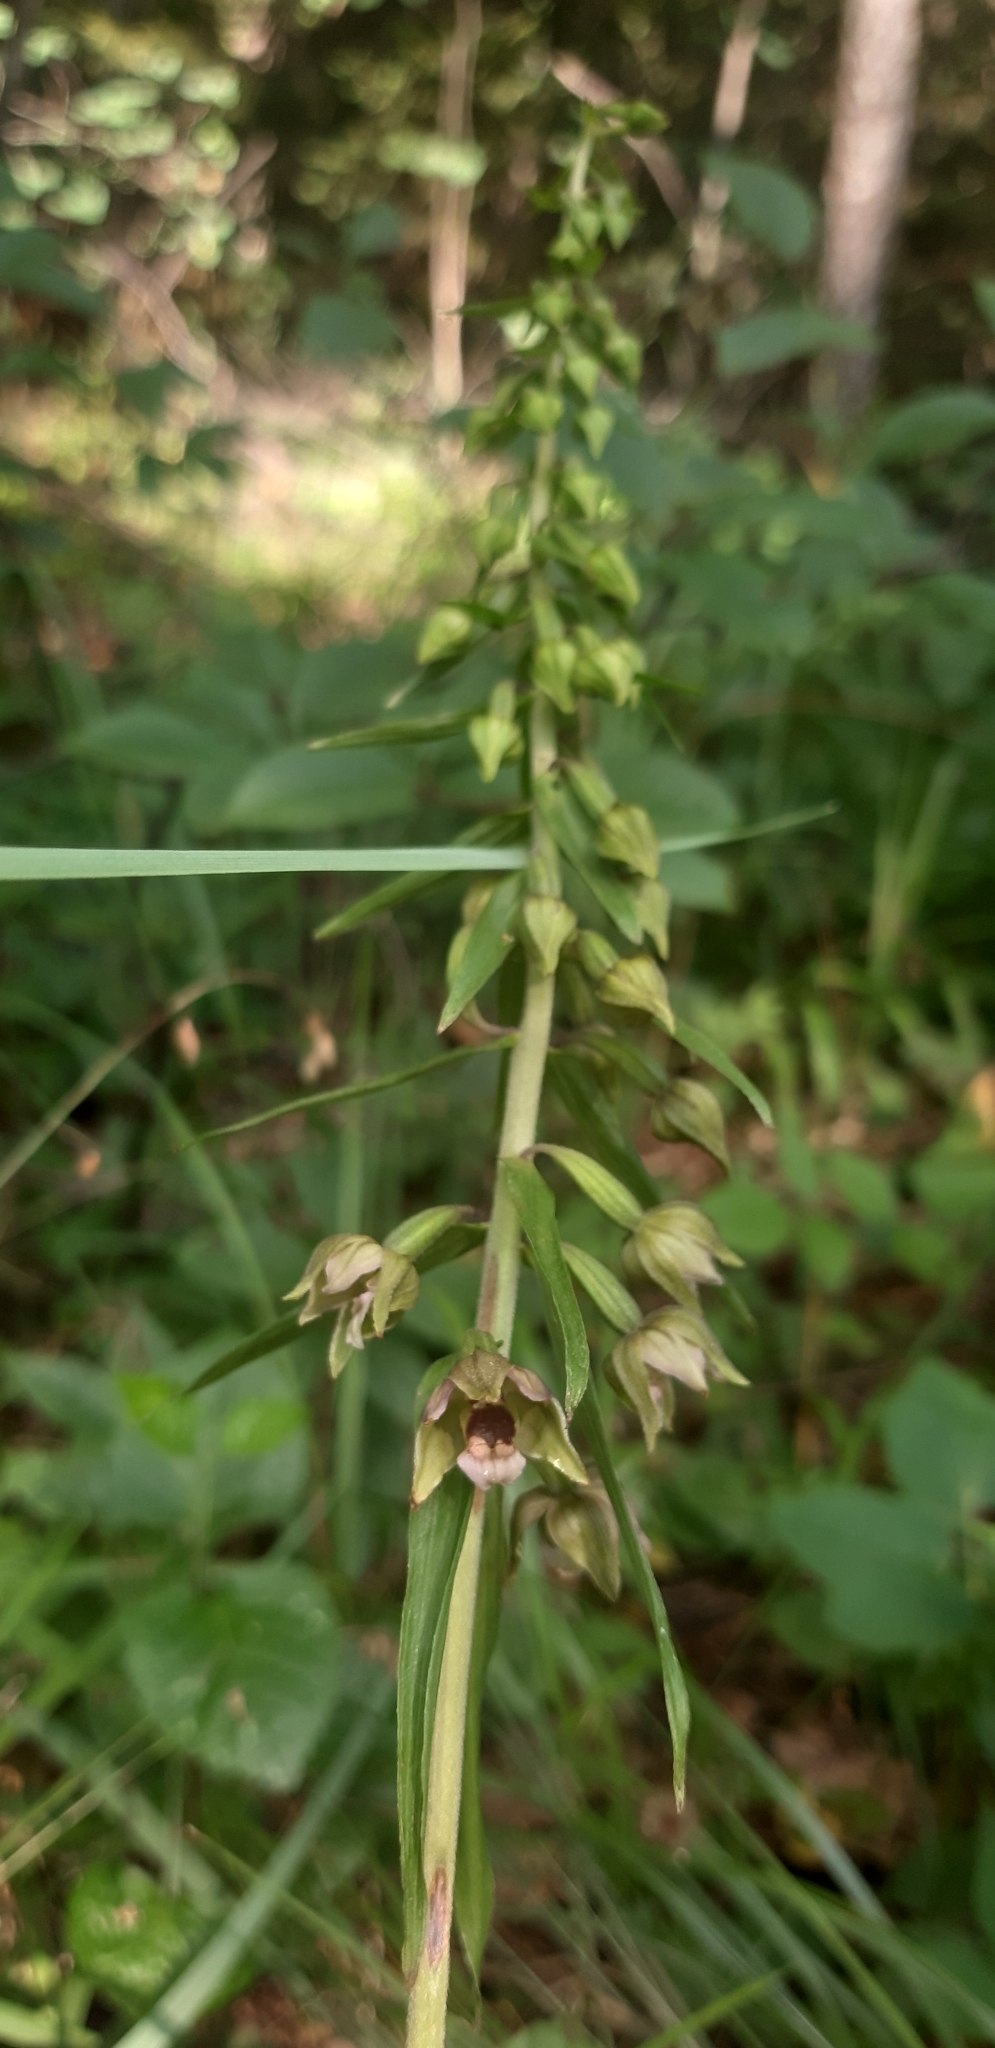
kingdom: Plantae
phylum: Tracheophyta
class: Liliopsida
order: Asparagales
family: Orchidaceae
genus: Epipactis
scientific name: Epipactis helleborine
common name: Broad-leaved helleborine
